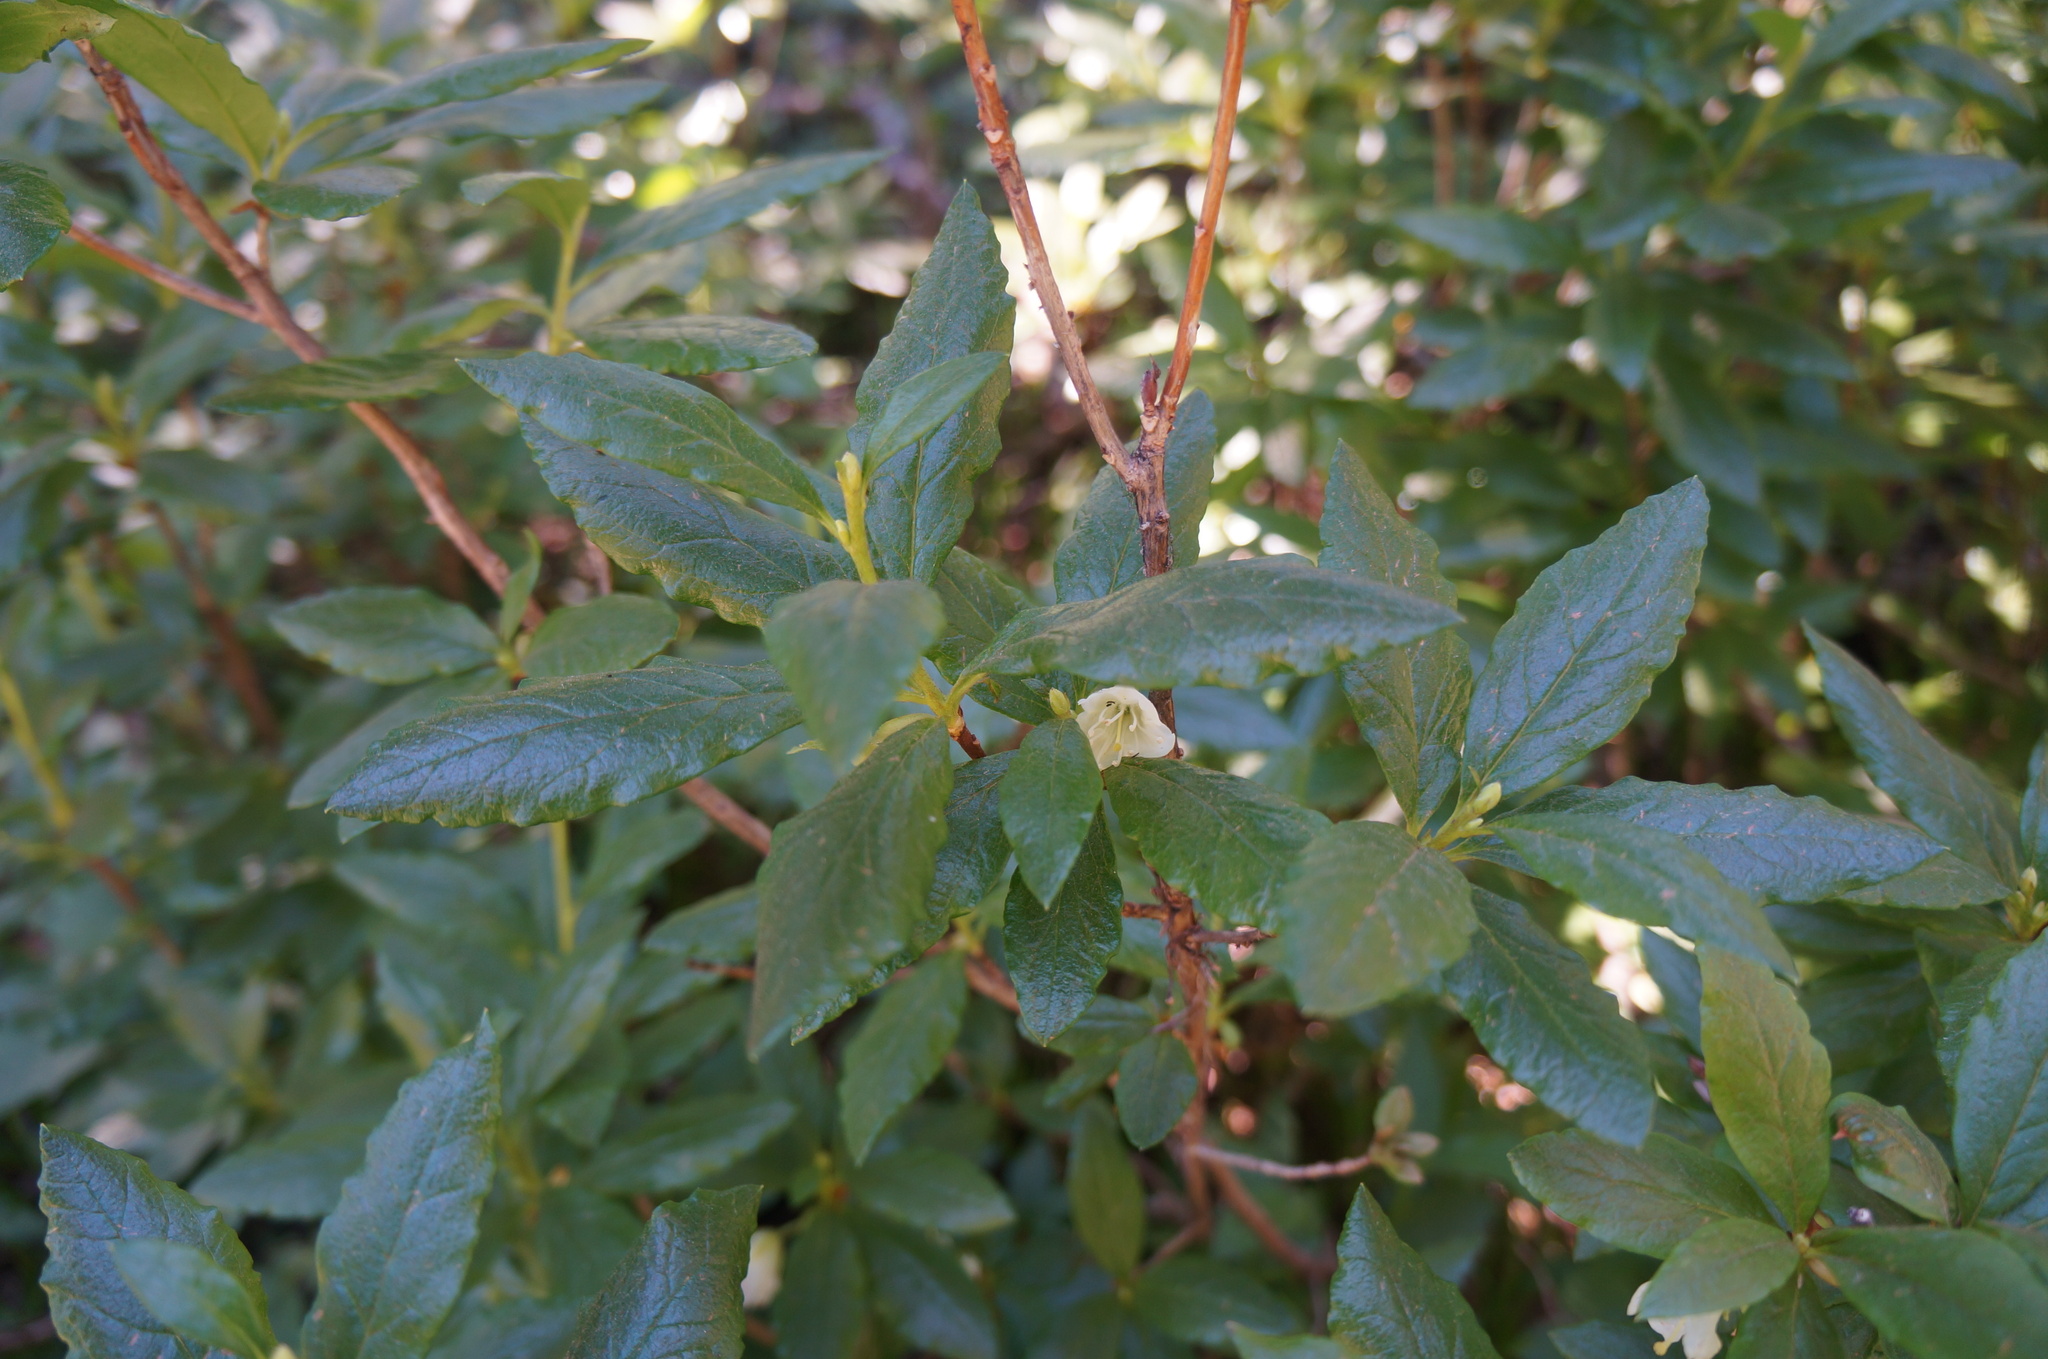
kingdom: Plantae
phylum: Tracheophyta
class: Magnoliopsida
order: Ericales
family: Ericaceae
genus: Rhododendron
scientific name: Rhododendron albiflorum
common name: White rhododendron
